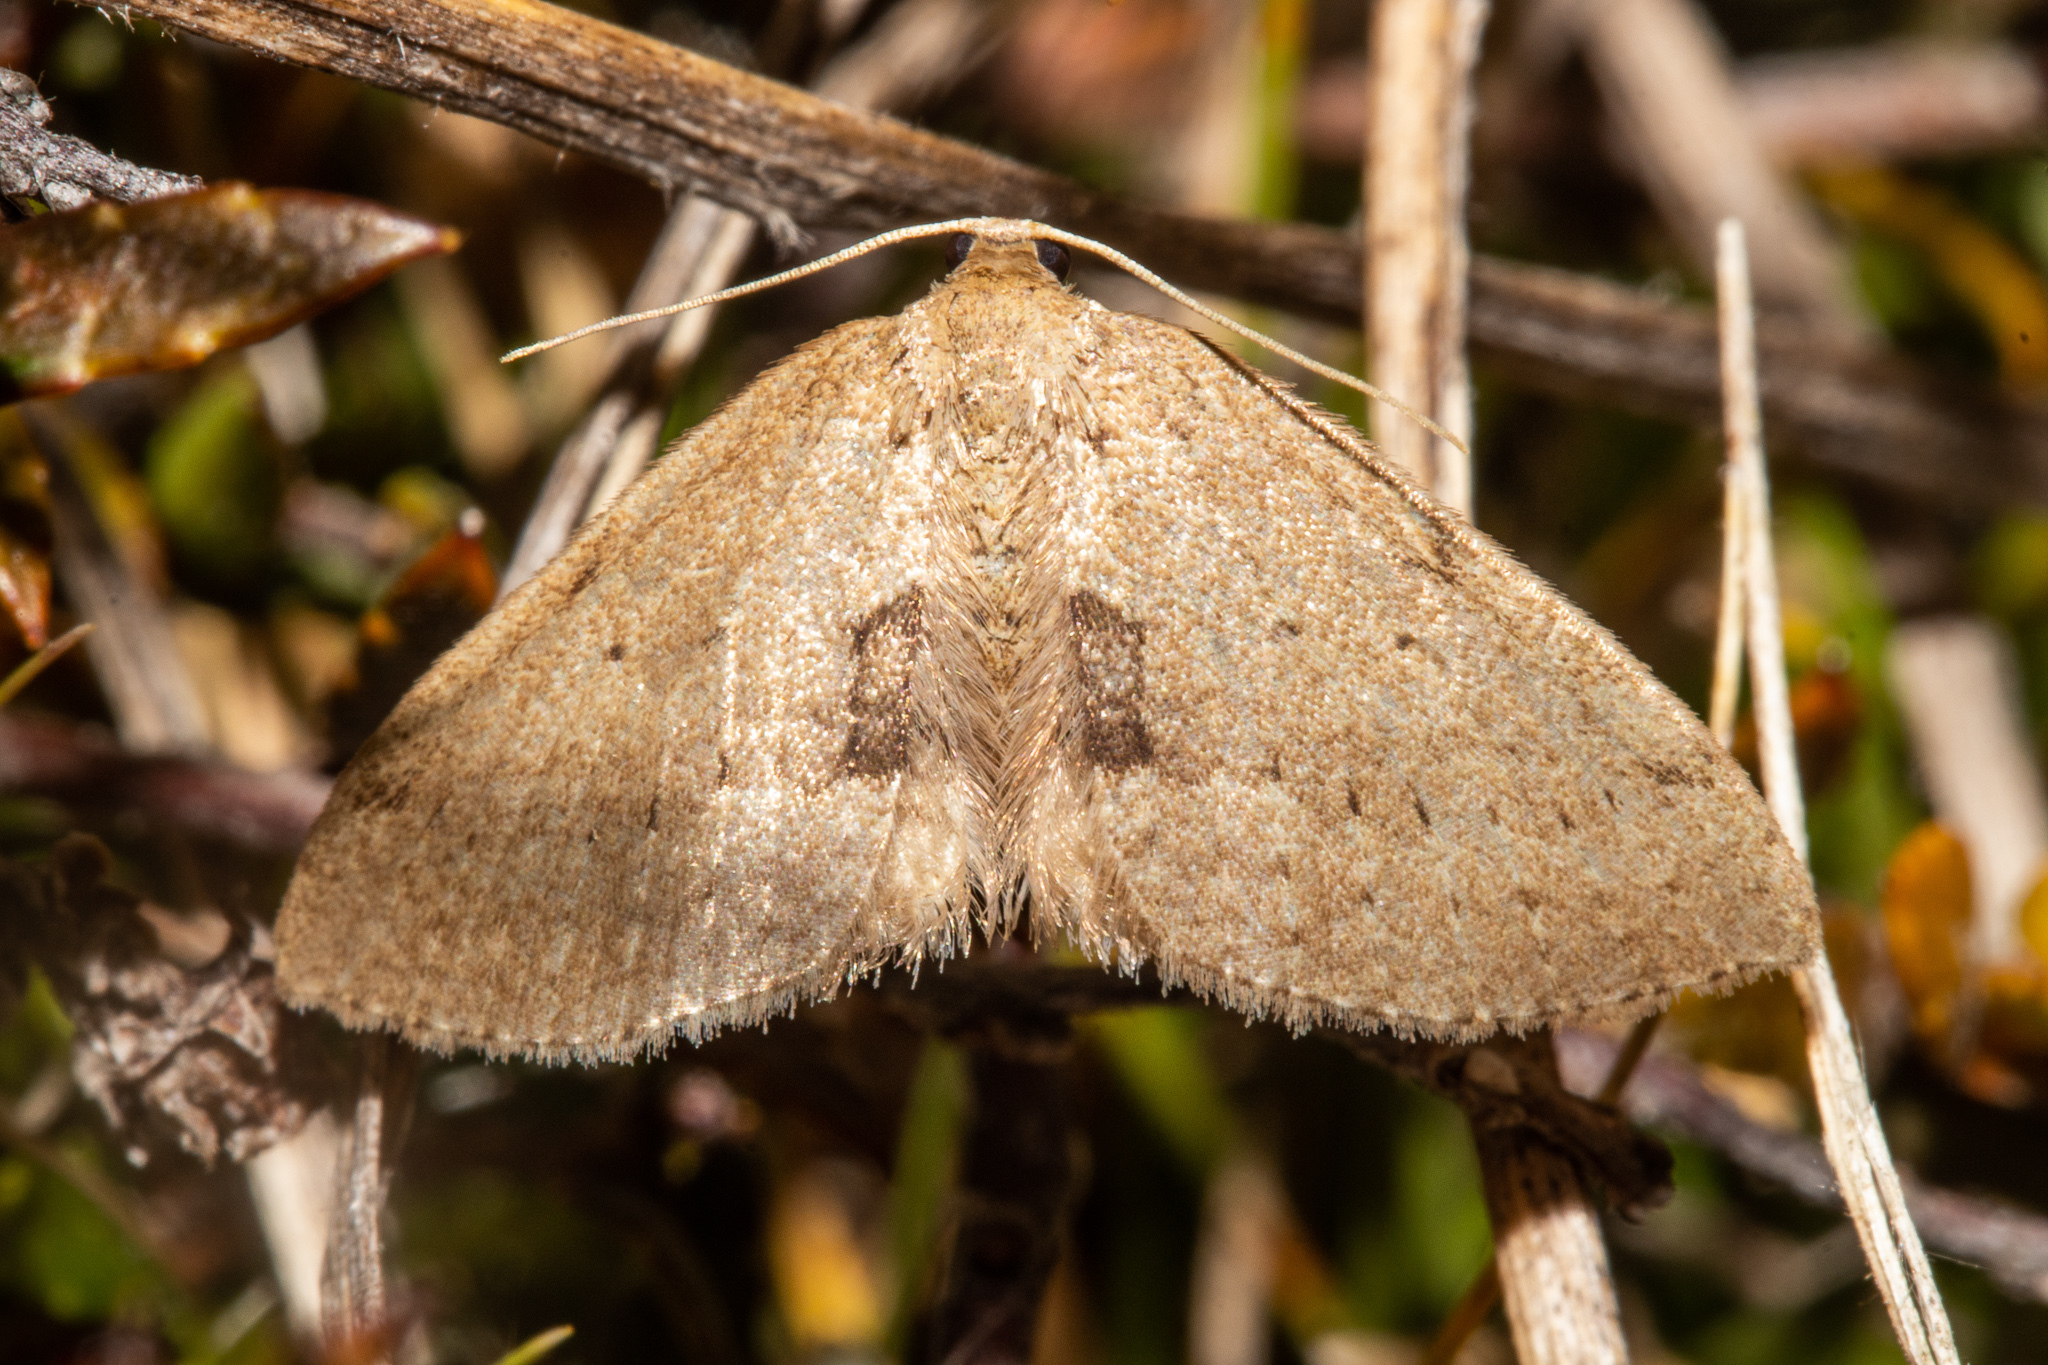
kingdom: Animalia
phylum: Arthropoda
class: Insecta
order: Lepidoptera
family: Geometridae
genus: Poecilasthena
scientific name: Poecilasthena schistaria
